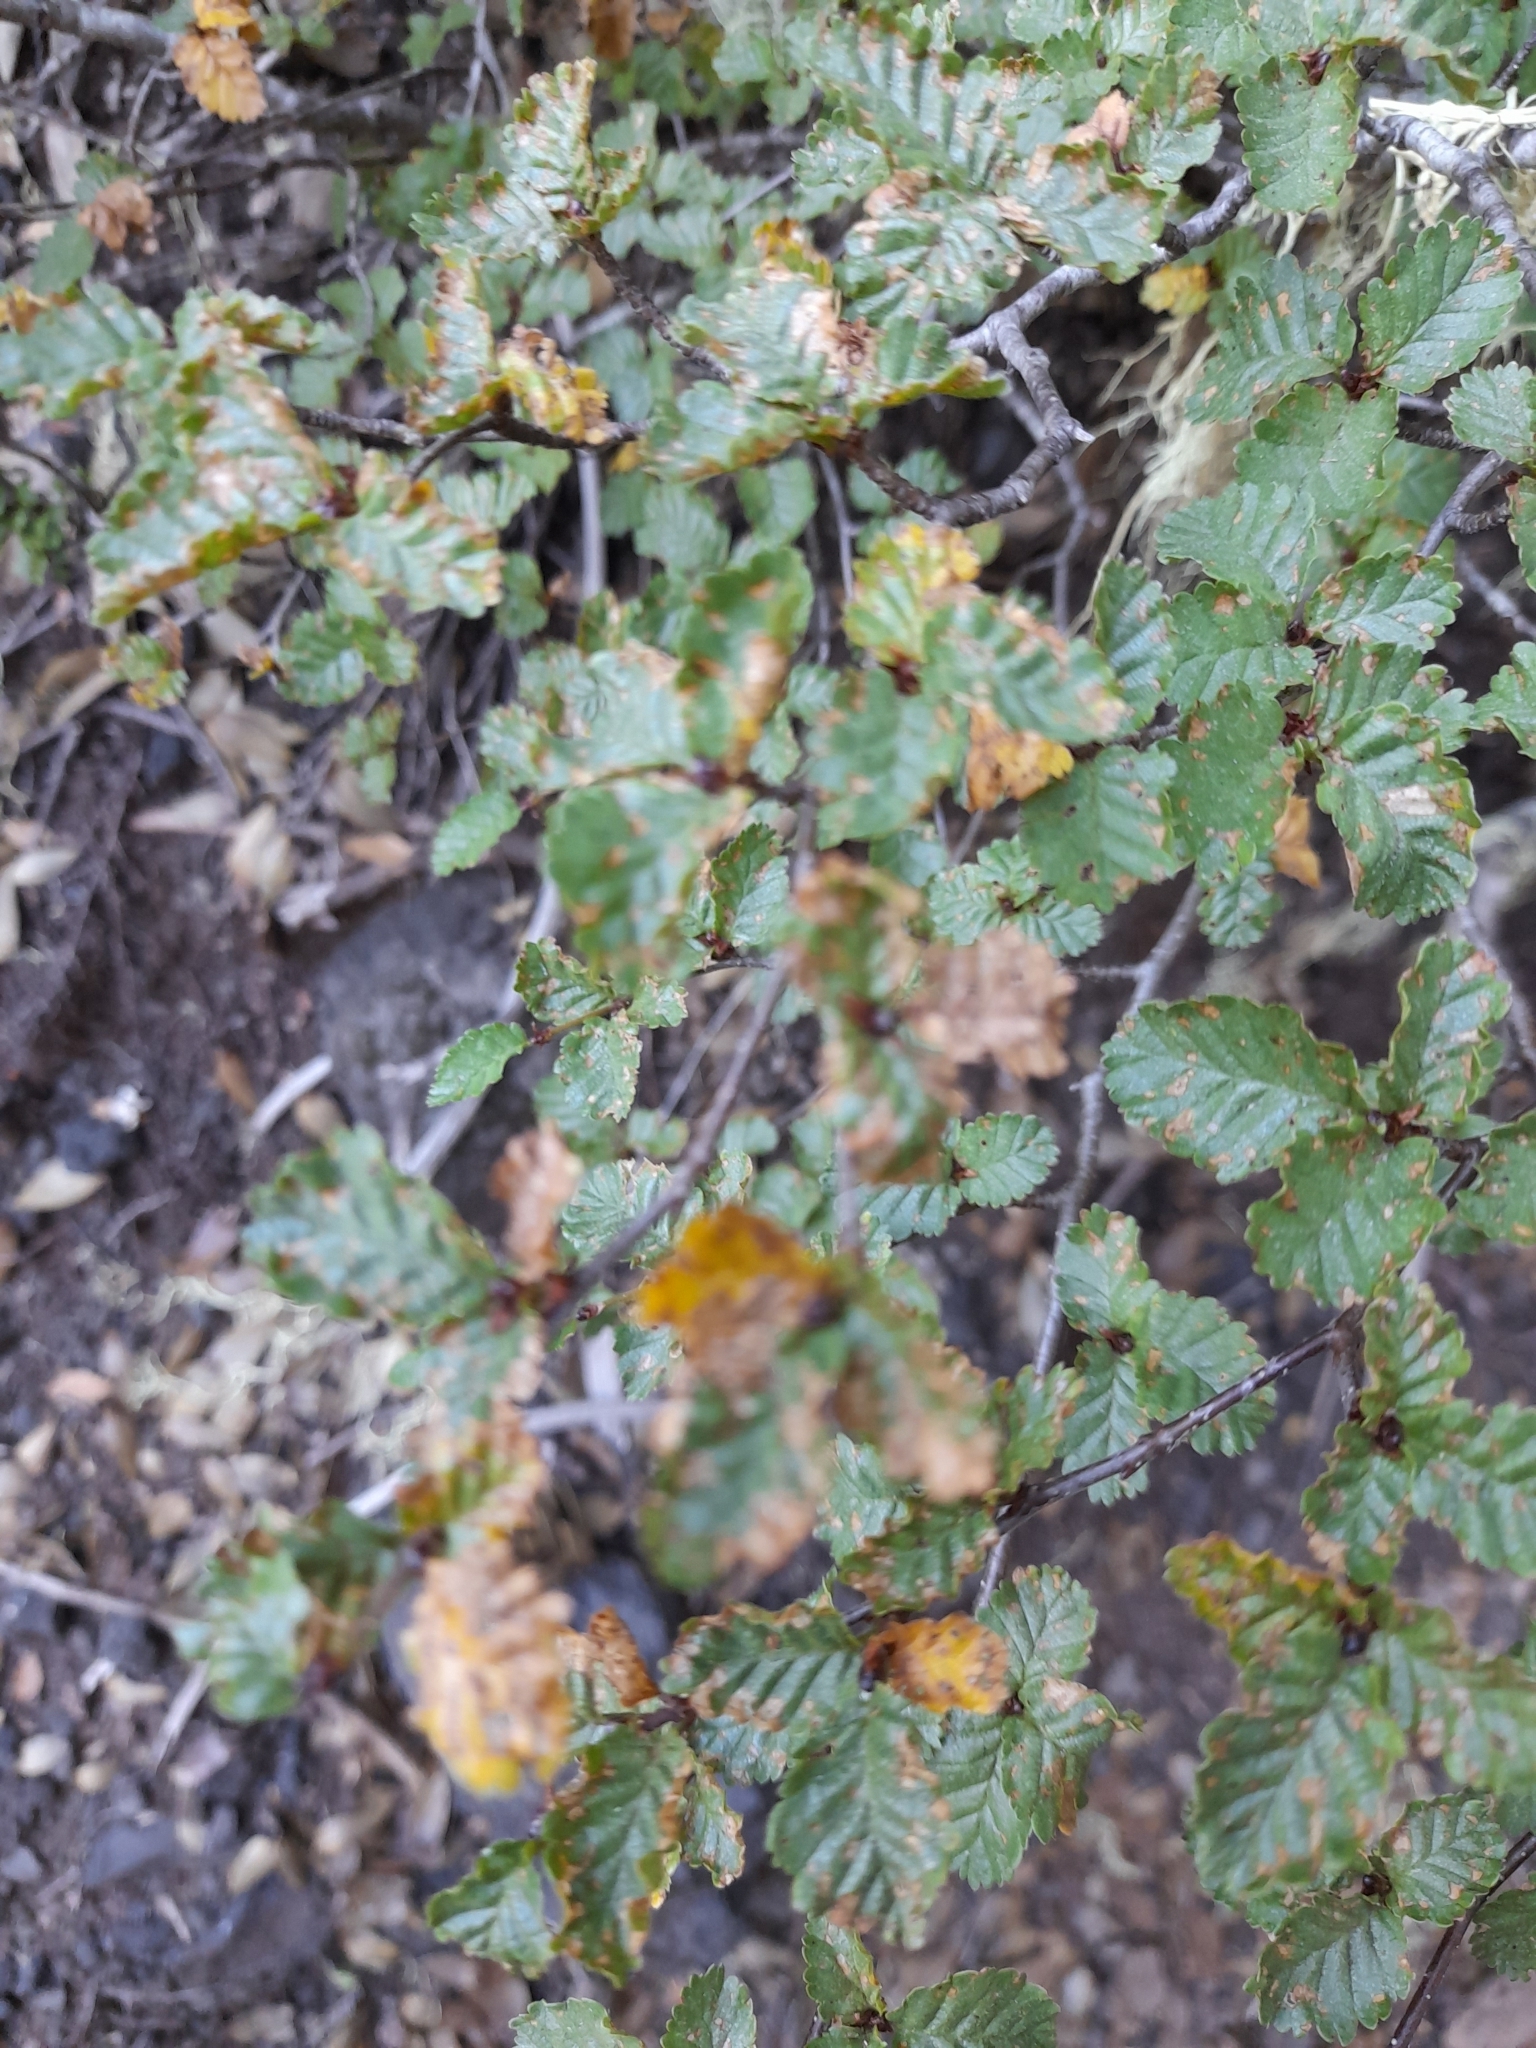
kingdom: Plantae
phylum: Tracheophyta
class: Magnoliopsida
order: Fagales
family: Nothofagaceae
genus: Nothofagus
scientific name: Nothofagus pumilio
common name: Lenga beech
